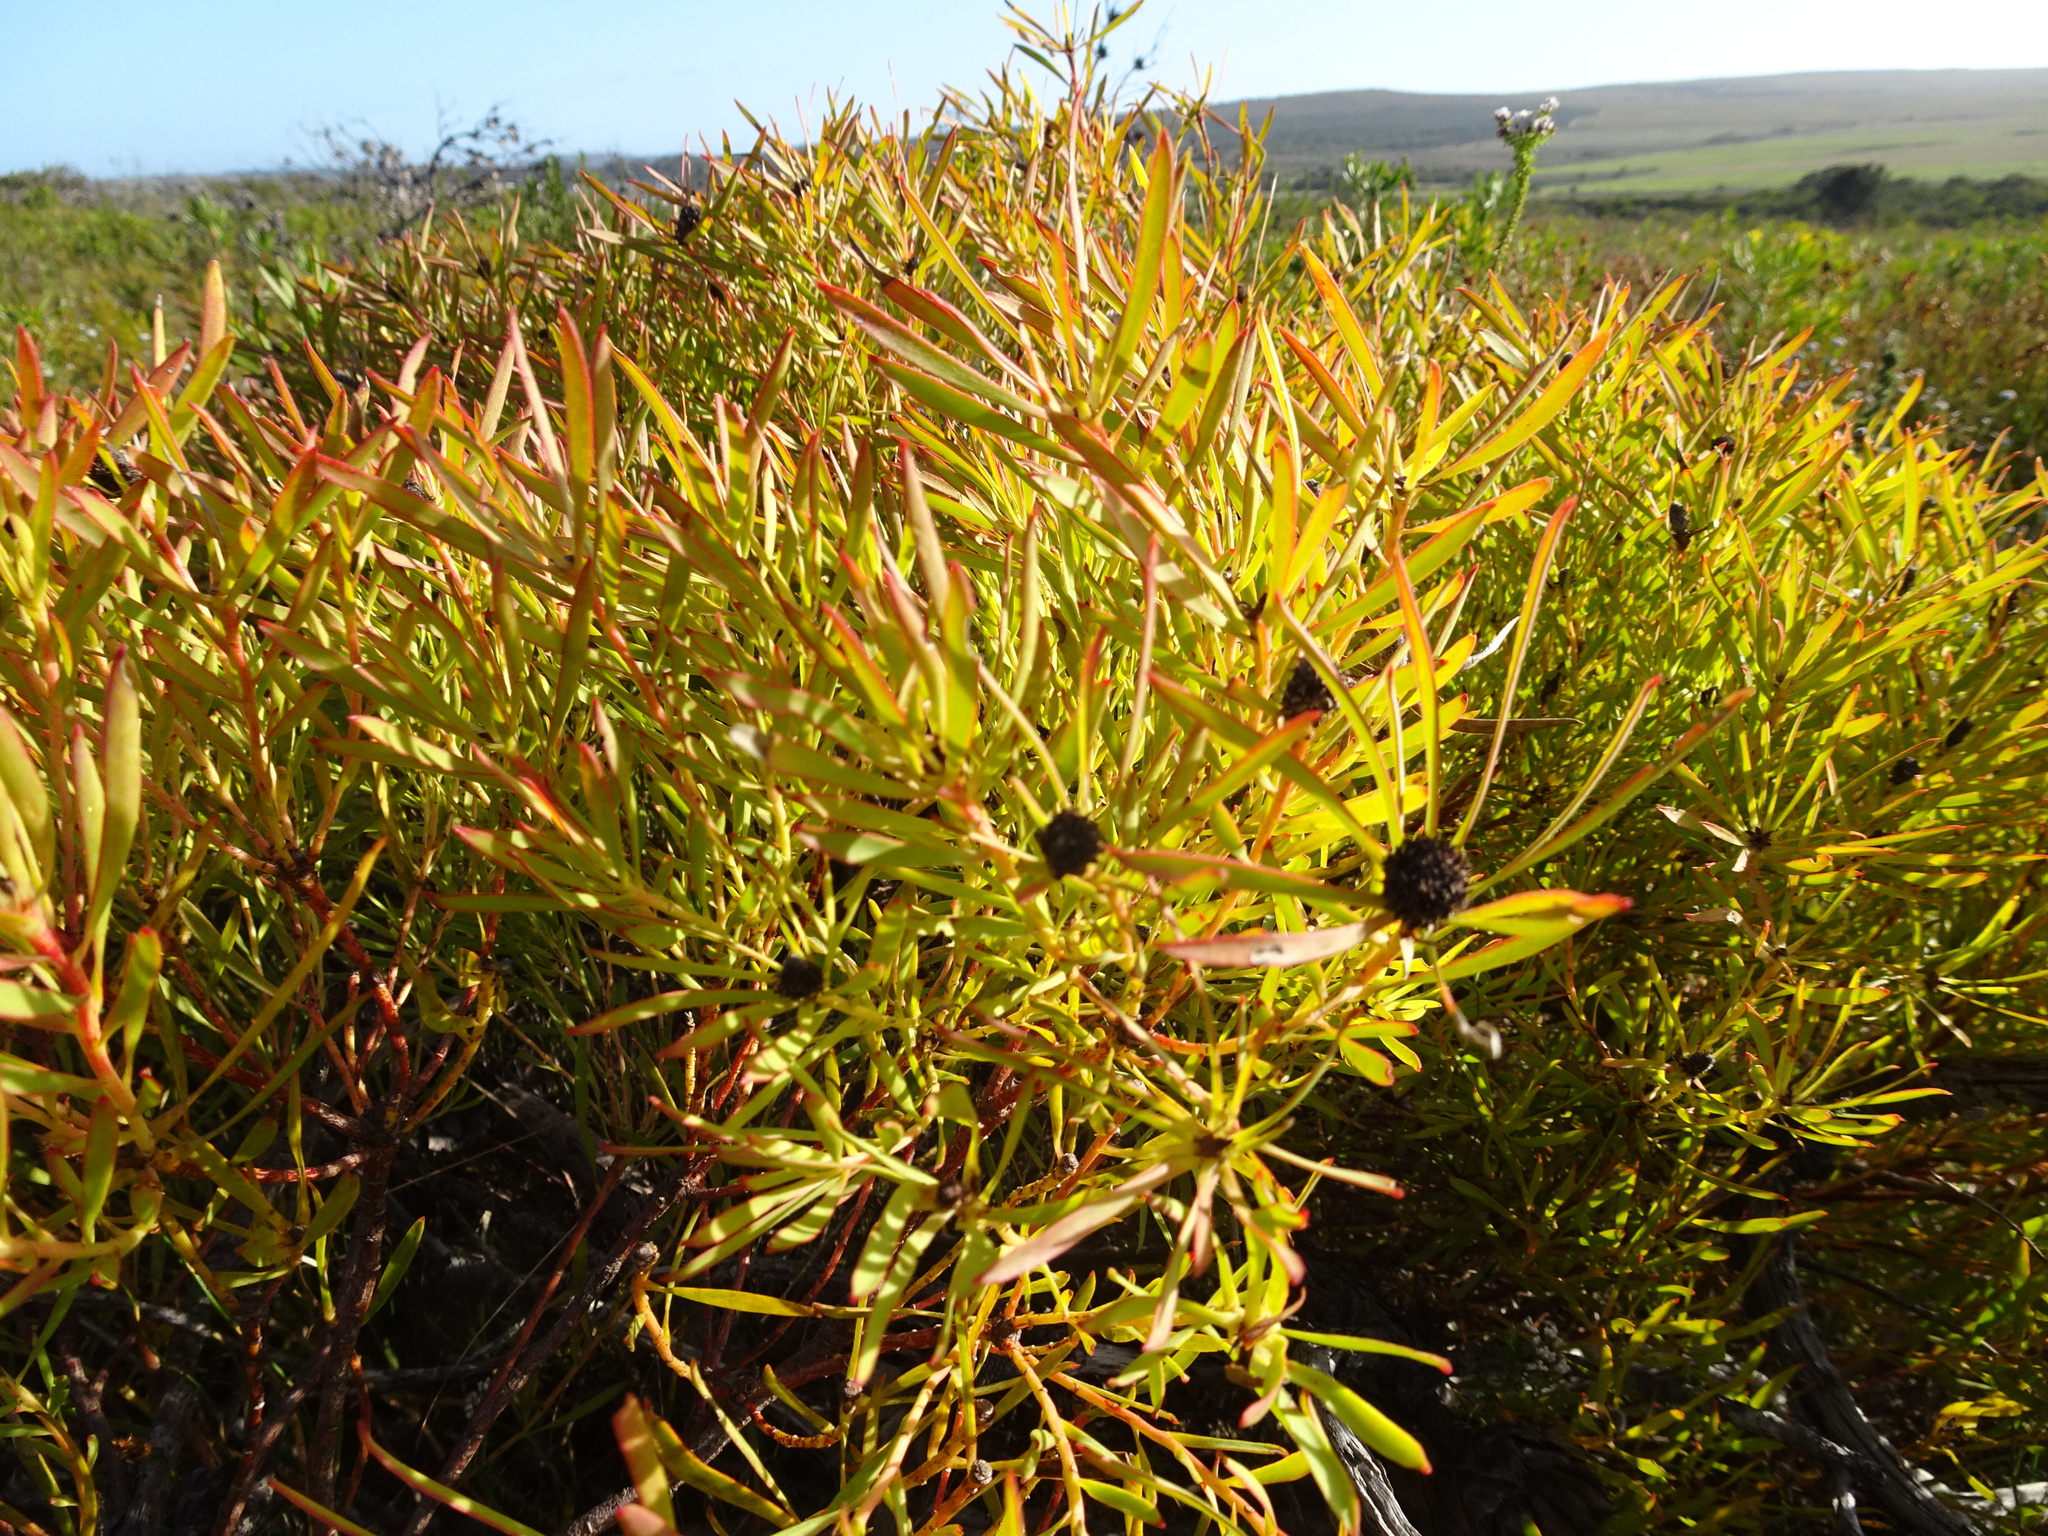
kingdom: Plantae
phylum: Tracheophyta
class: Magnoliopsida
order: Proteales
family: Proteaceae
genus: Leucadendron
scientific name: Leucadendron salignum
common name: Common sunshine conebush
